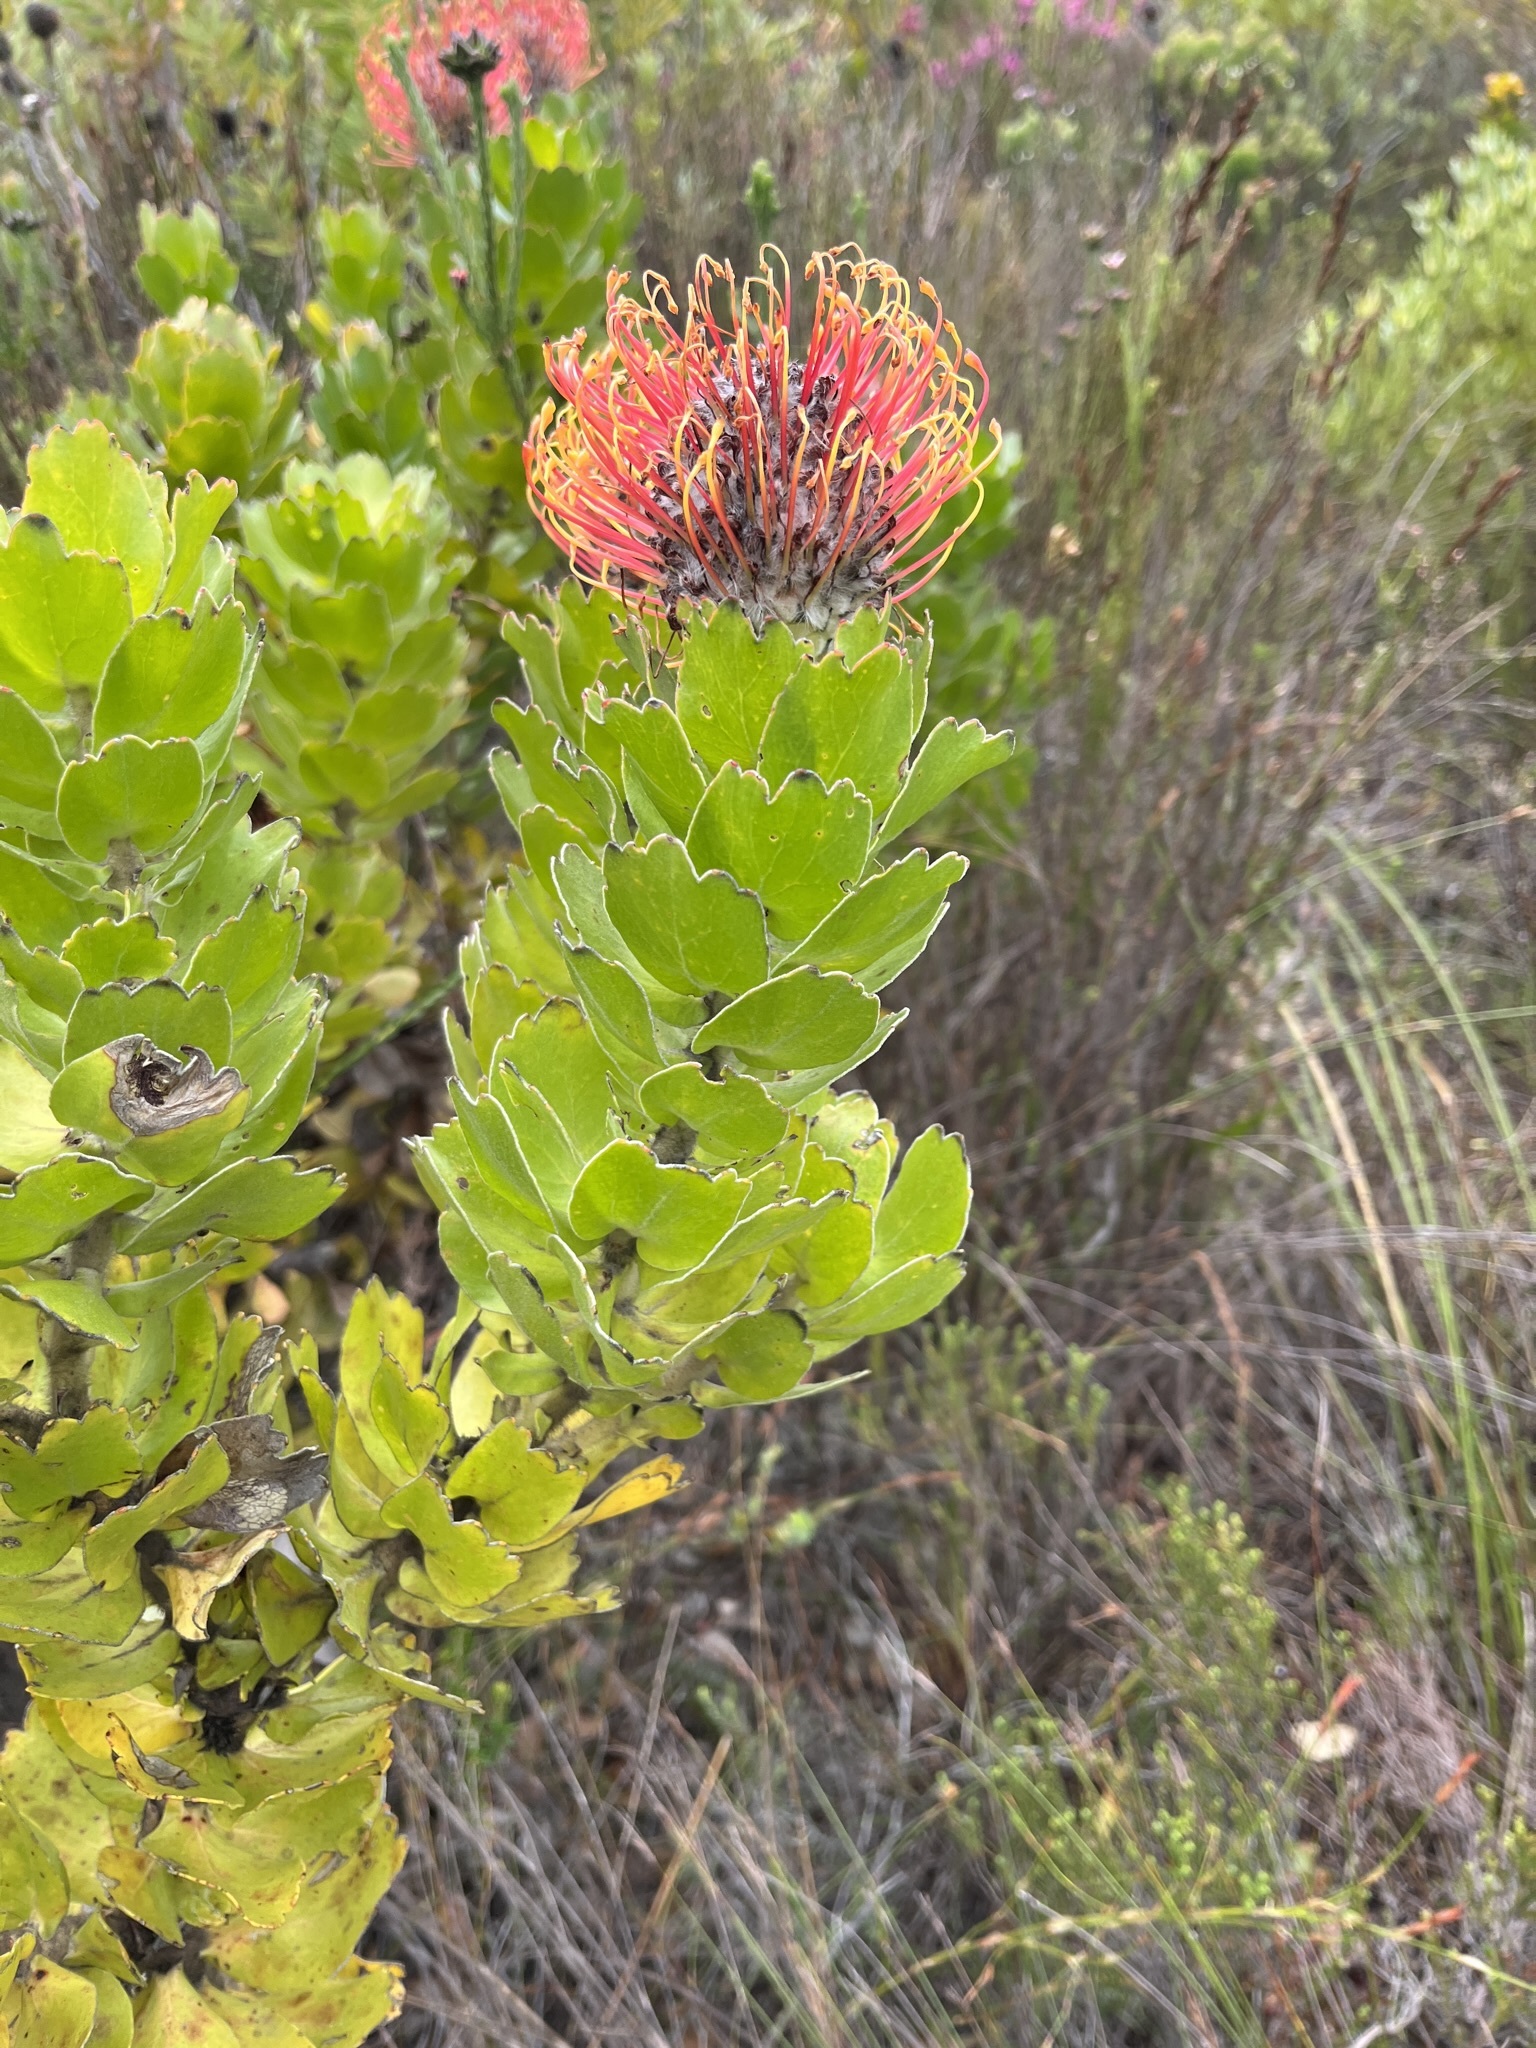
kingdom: Plantae
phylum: Tracheophyta
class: Magnoliopsida
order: Proteales
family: Proteaceae
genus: Leucospermum
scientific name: Leucospermum patersonii
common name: False tree pincushion
